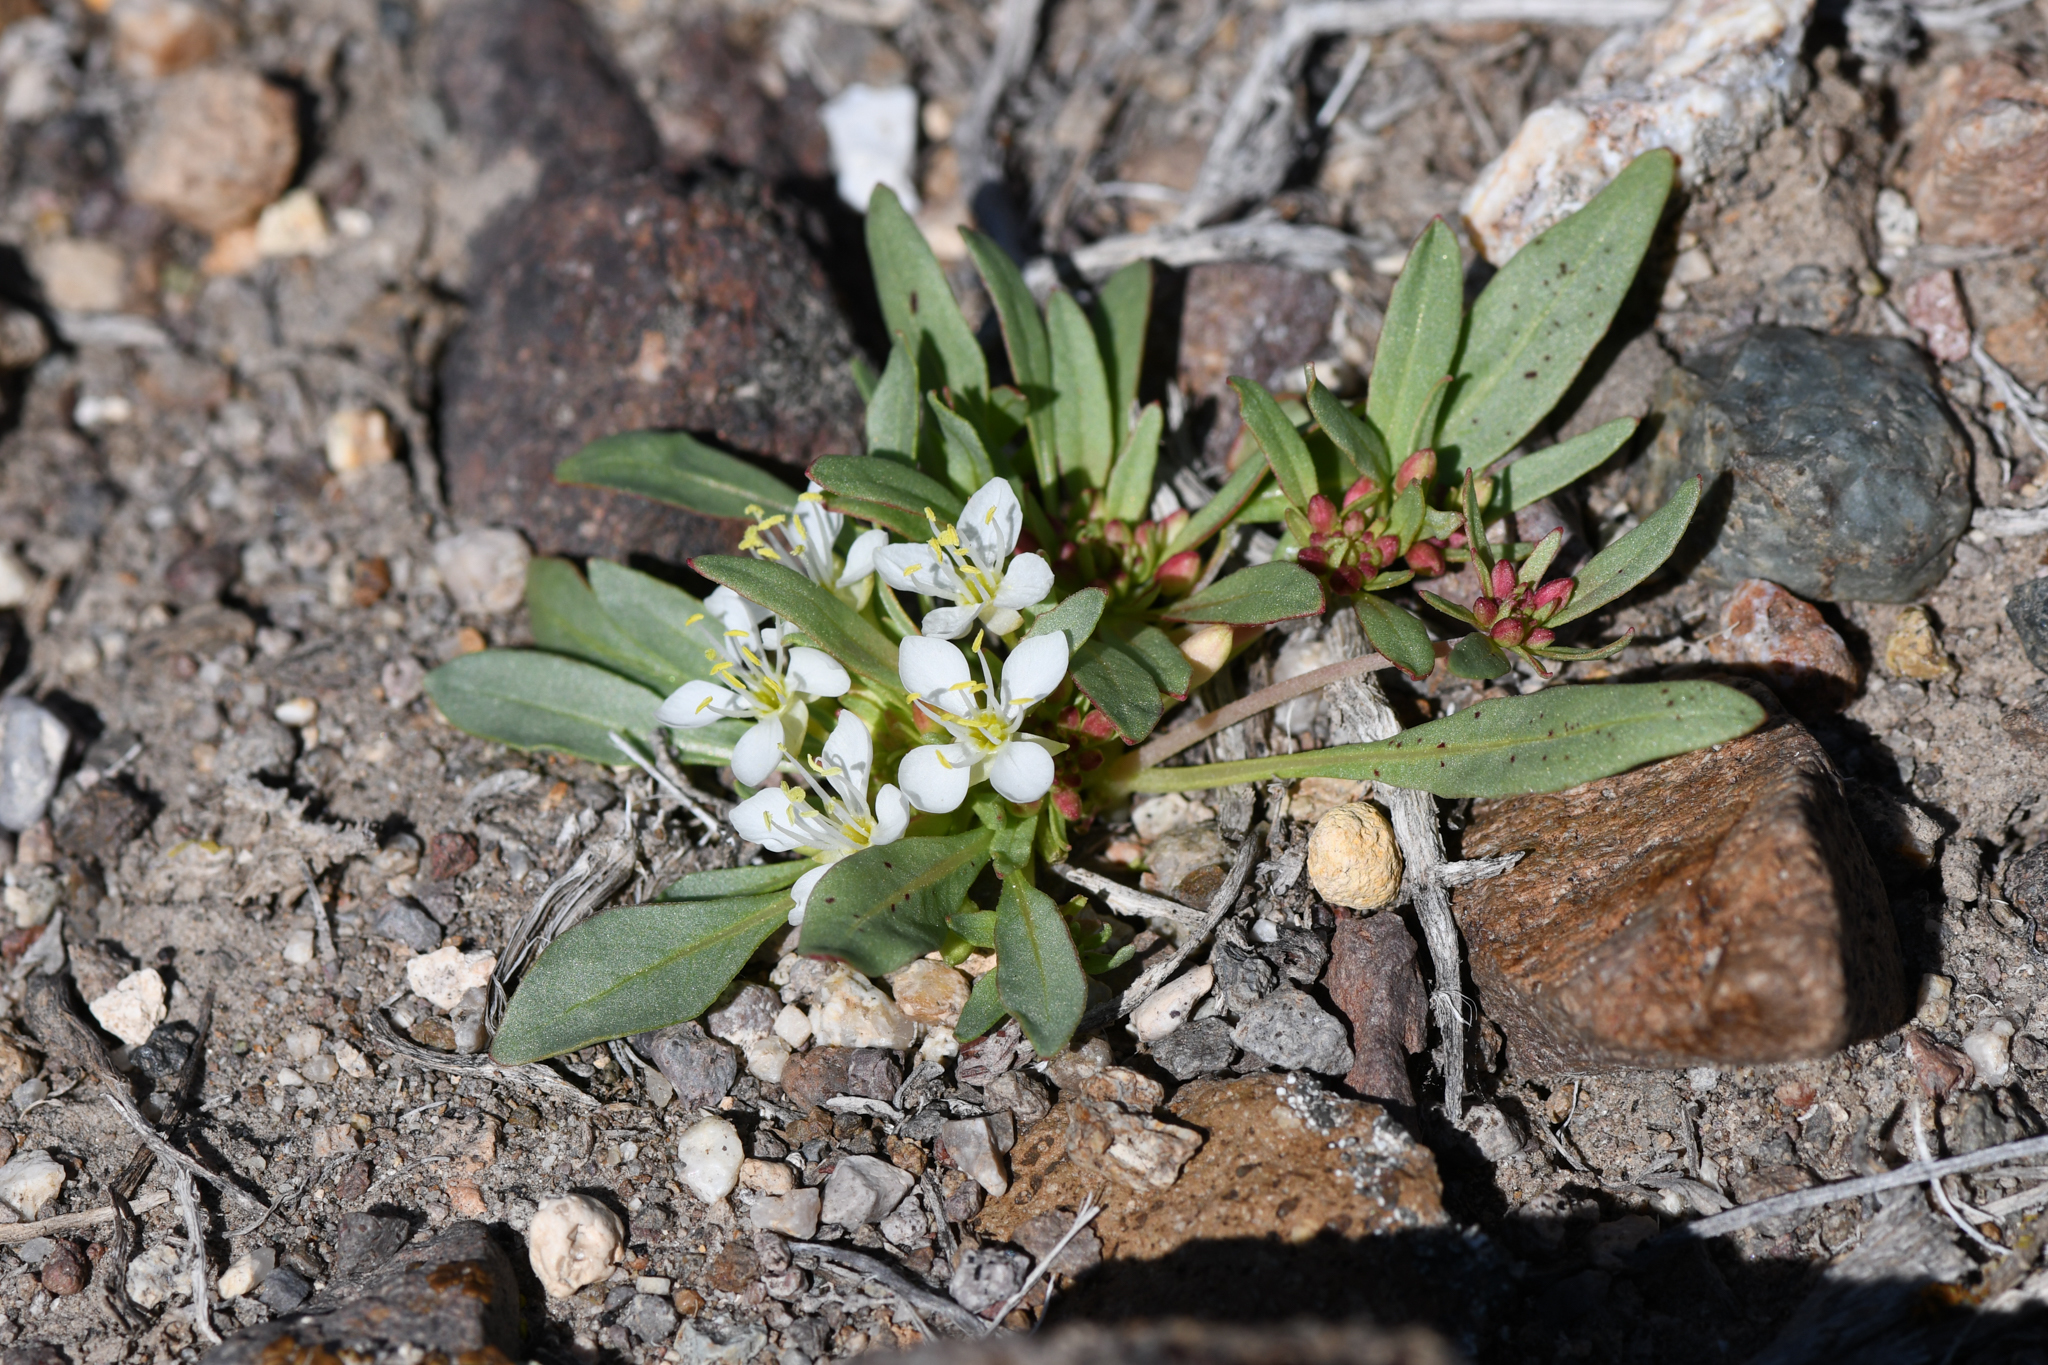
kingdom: Plantae
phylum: Tracheophyta
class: Magnoliopsida
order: Myrtales
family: Onagraceae
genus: Eremothera
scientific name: Eremothera nevadensis
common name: Nevada suncup
